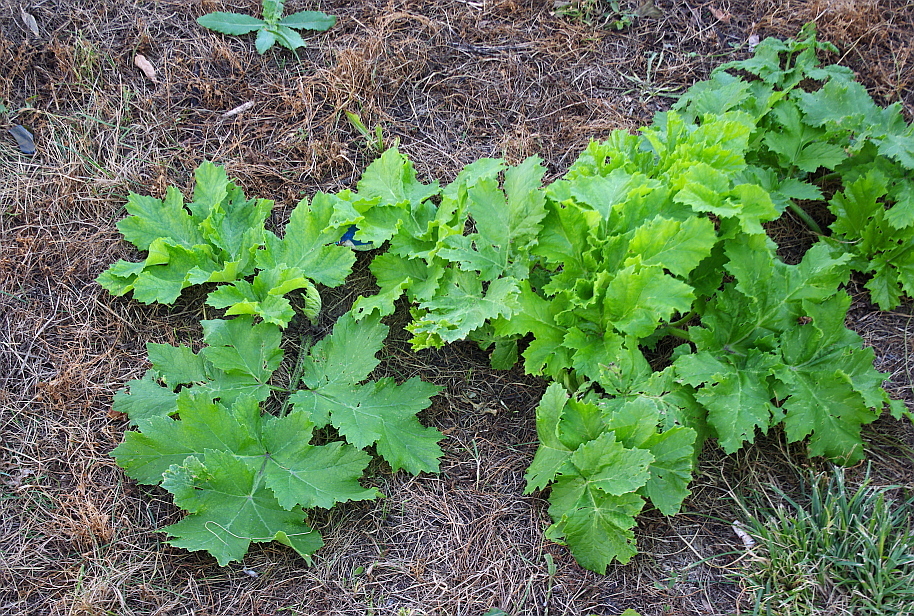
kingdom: Plantae
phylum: Tracheophyta
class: Magnoliopsida
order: Apiales
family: Apiaceae
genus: Heracleum
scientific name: Heracleum sosnowskyi
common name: Sosnowsky's hogweed
